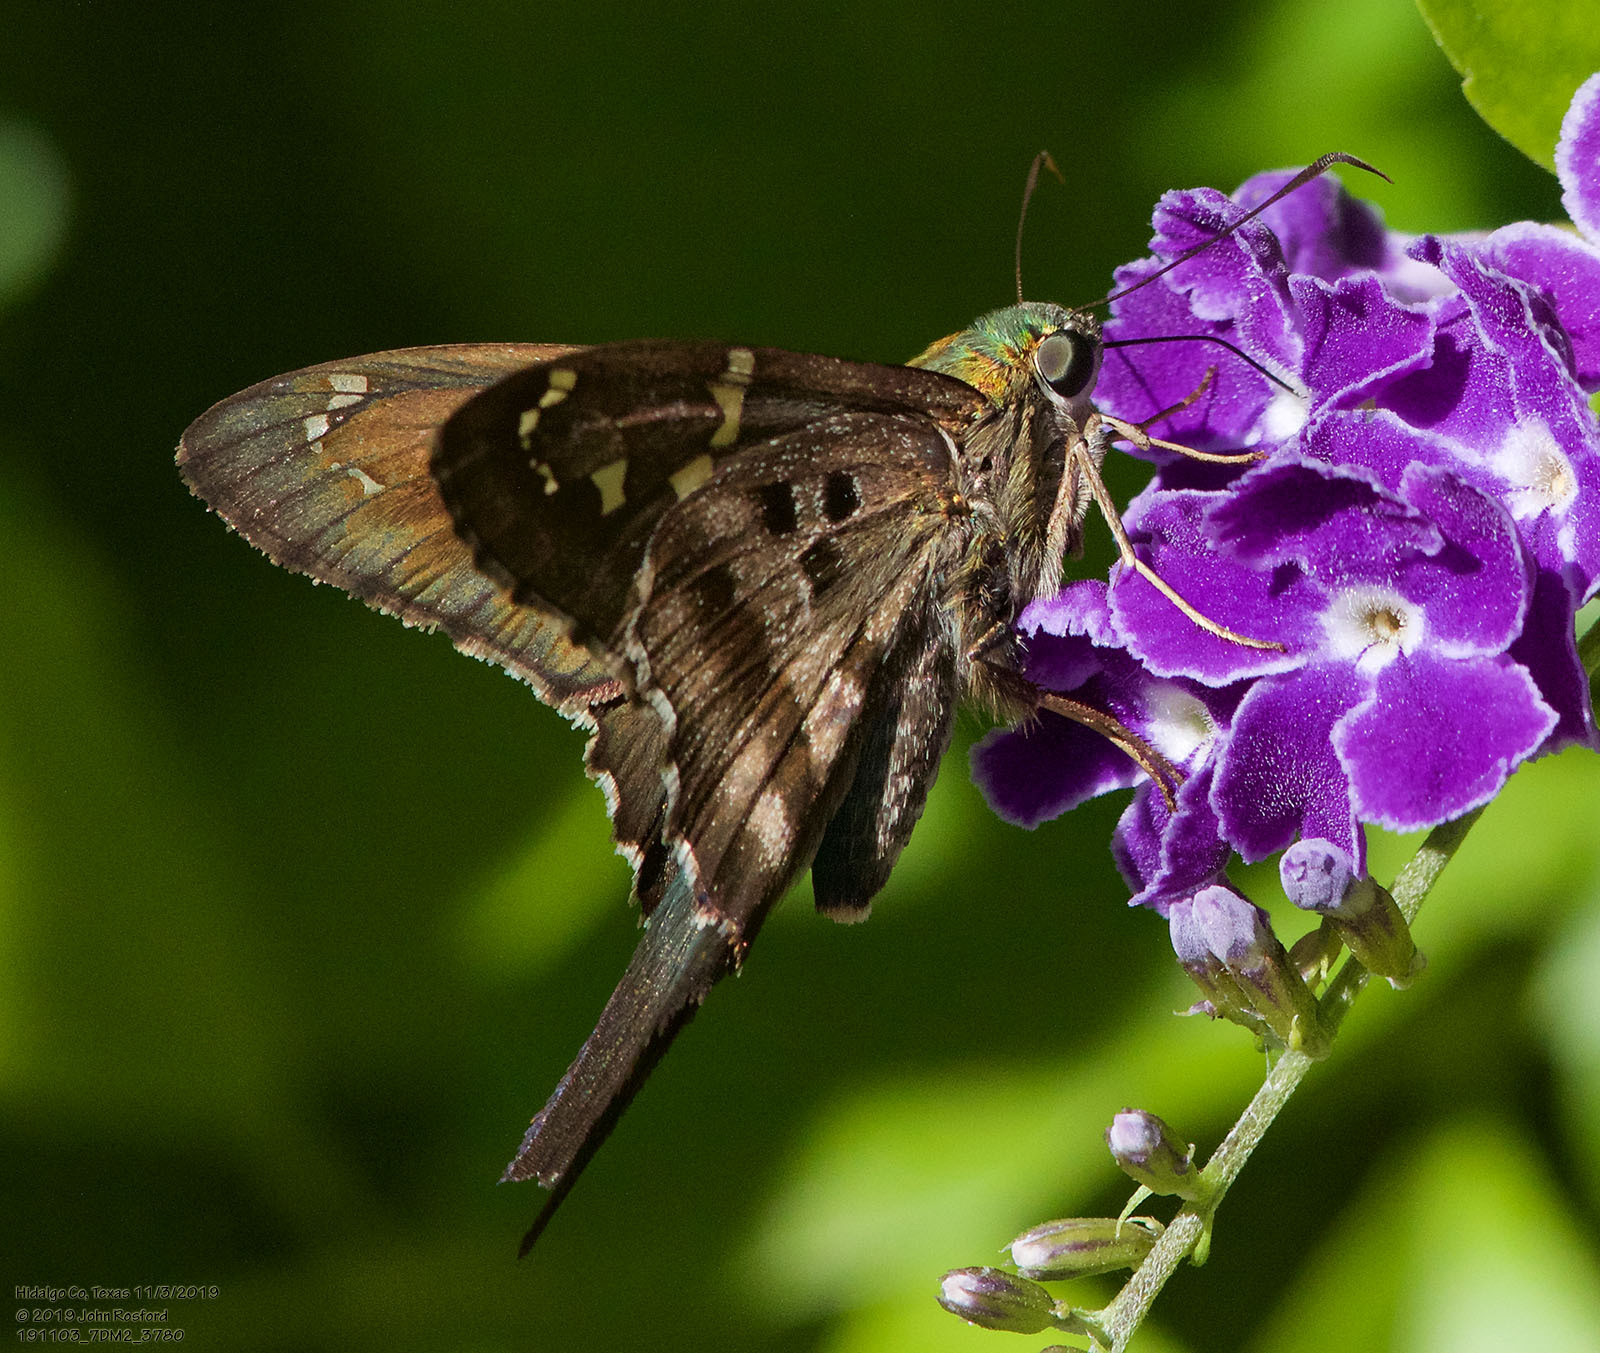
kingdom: Animalia
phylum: Arthropoda
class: Insecta
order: Lepidoptera
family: Hesperiidae
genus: Urbanus
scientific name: Urbanus proteus
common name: Long-tailed skipper
